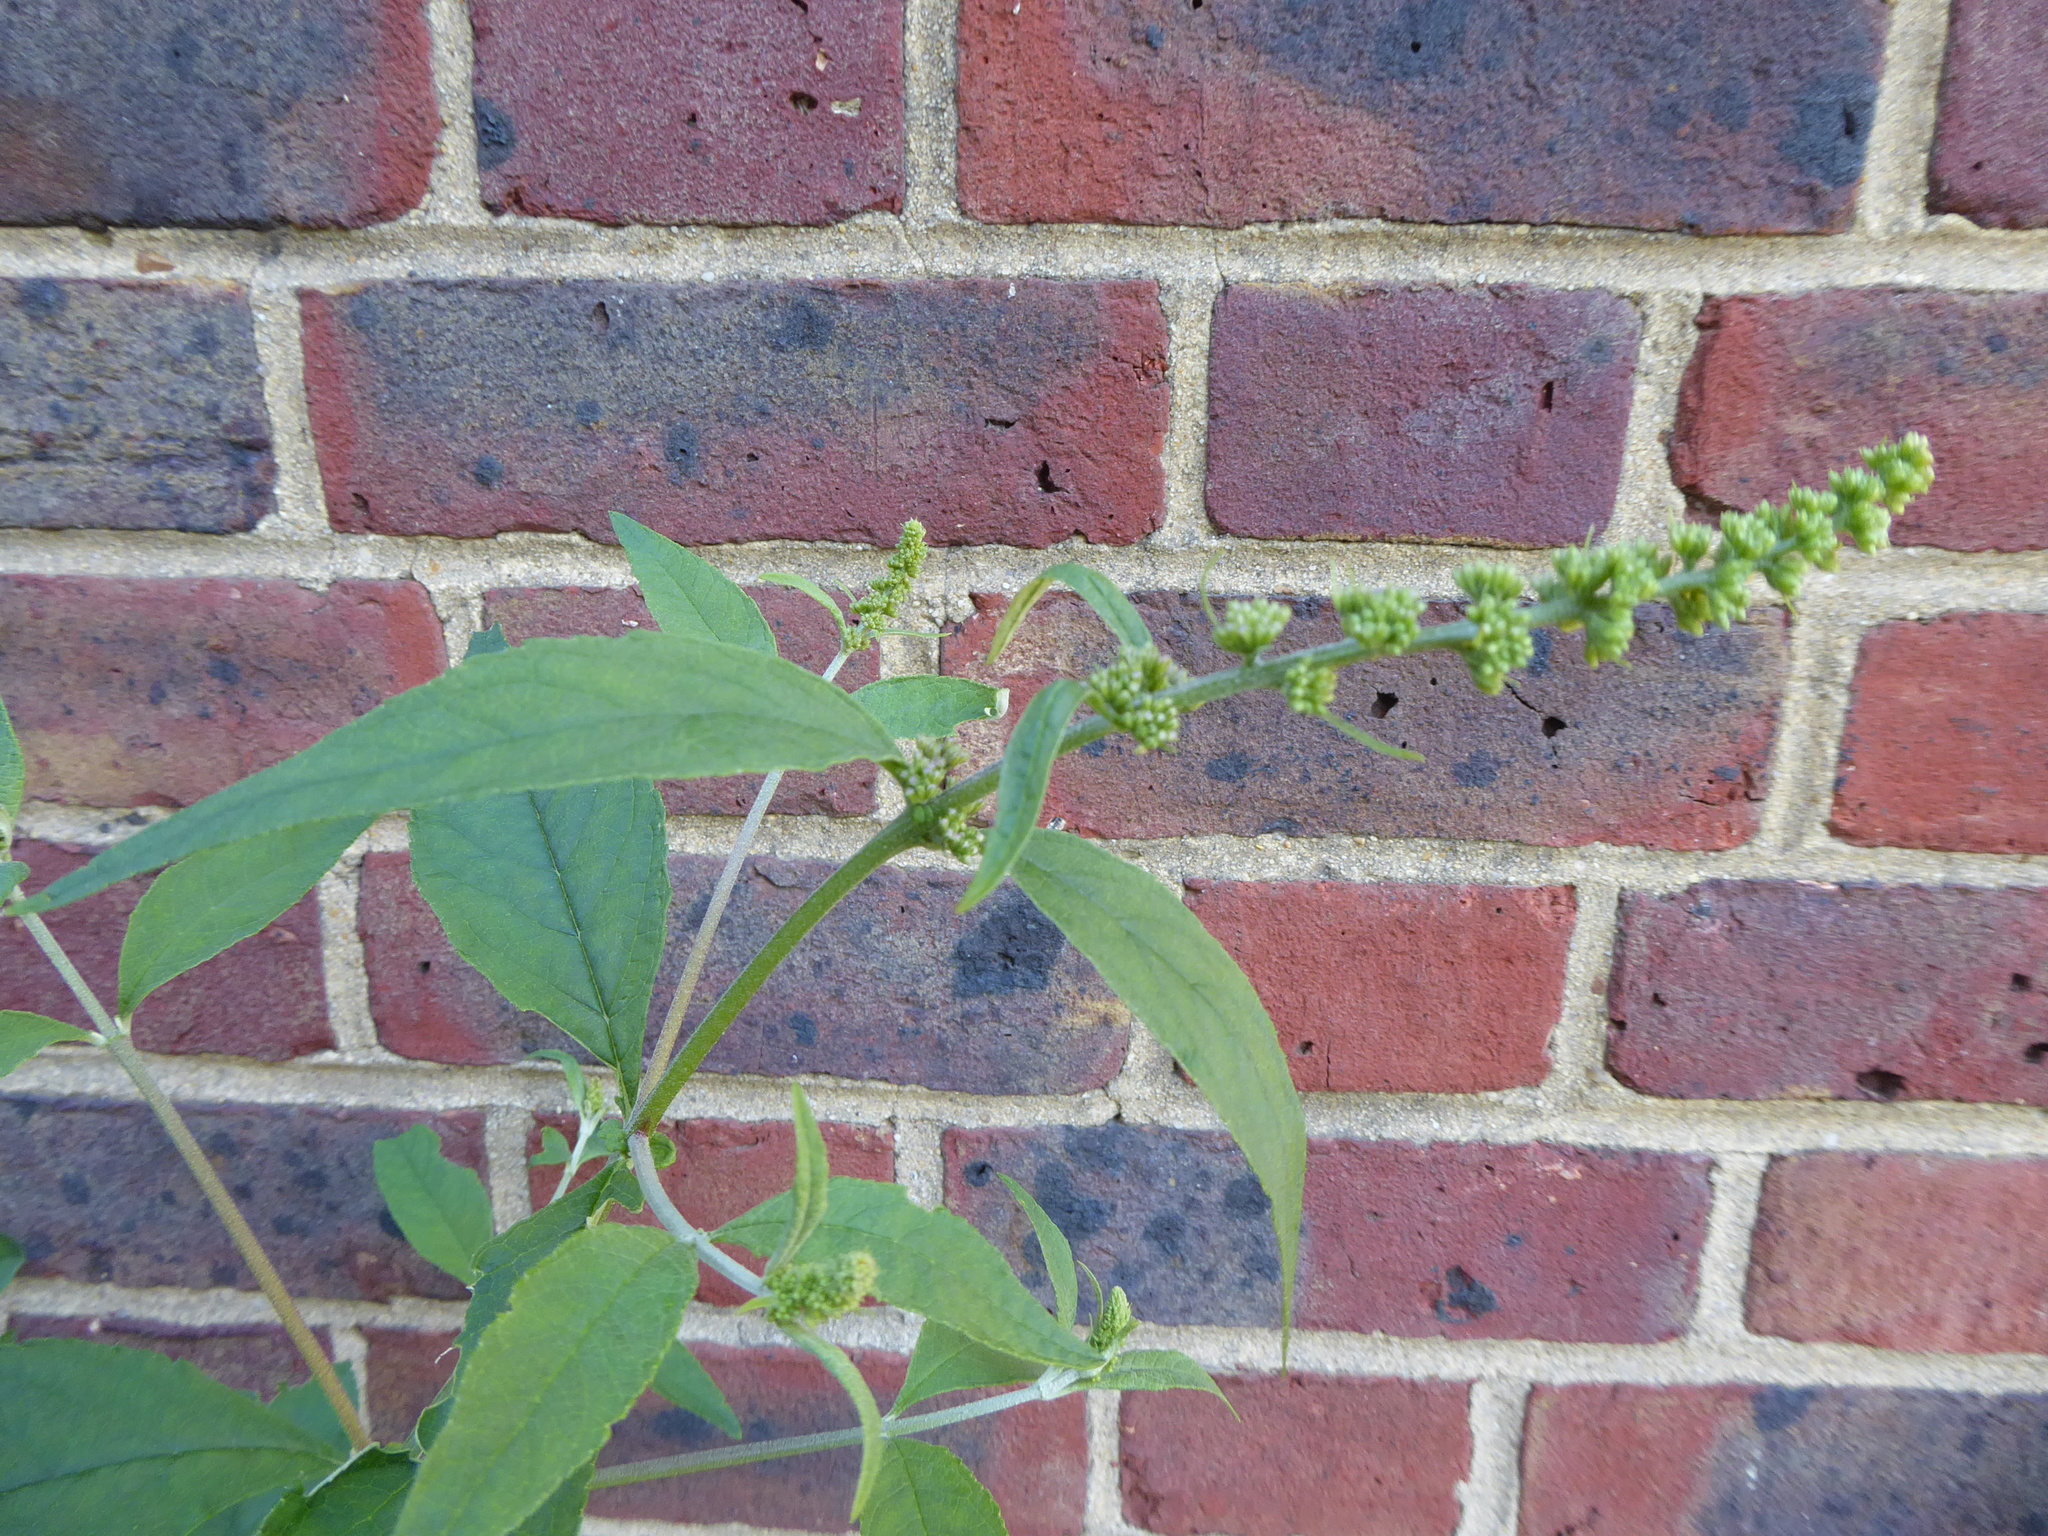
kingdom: Plantae
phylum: Tracheophyta
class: Magnoliopsida
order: Lamiales
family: Scrophulariaceae
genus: Buddleja
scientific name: Buddleja davidii
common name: Butterfly-bush
